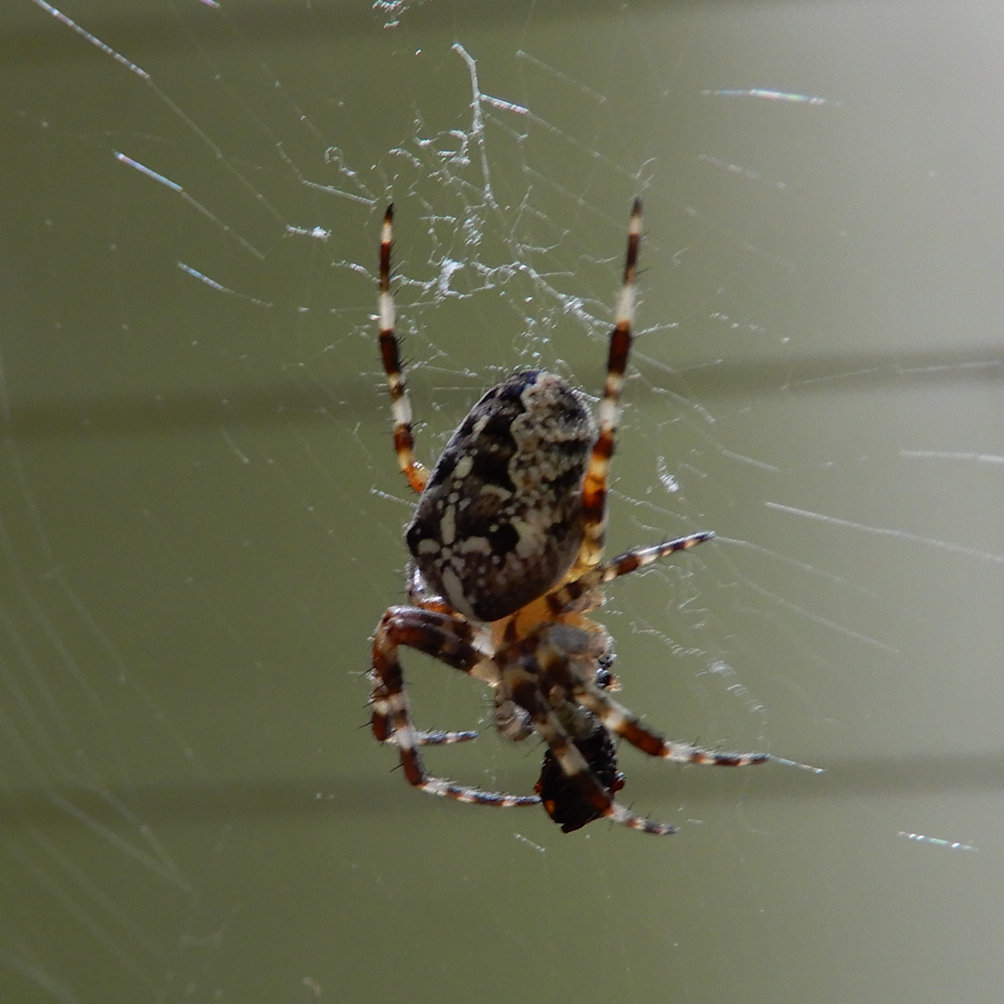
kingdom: Animalia
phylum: Arthropoda
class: Arachnida
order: Araneae
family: Araneidae
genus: Araneus
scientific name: Araneus diadematus
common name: Cross orbweaver
